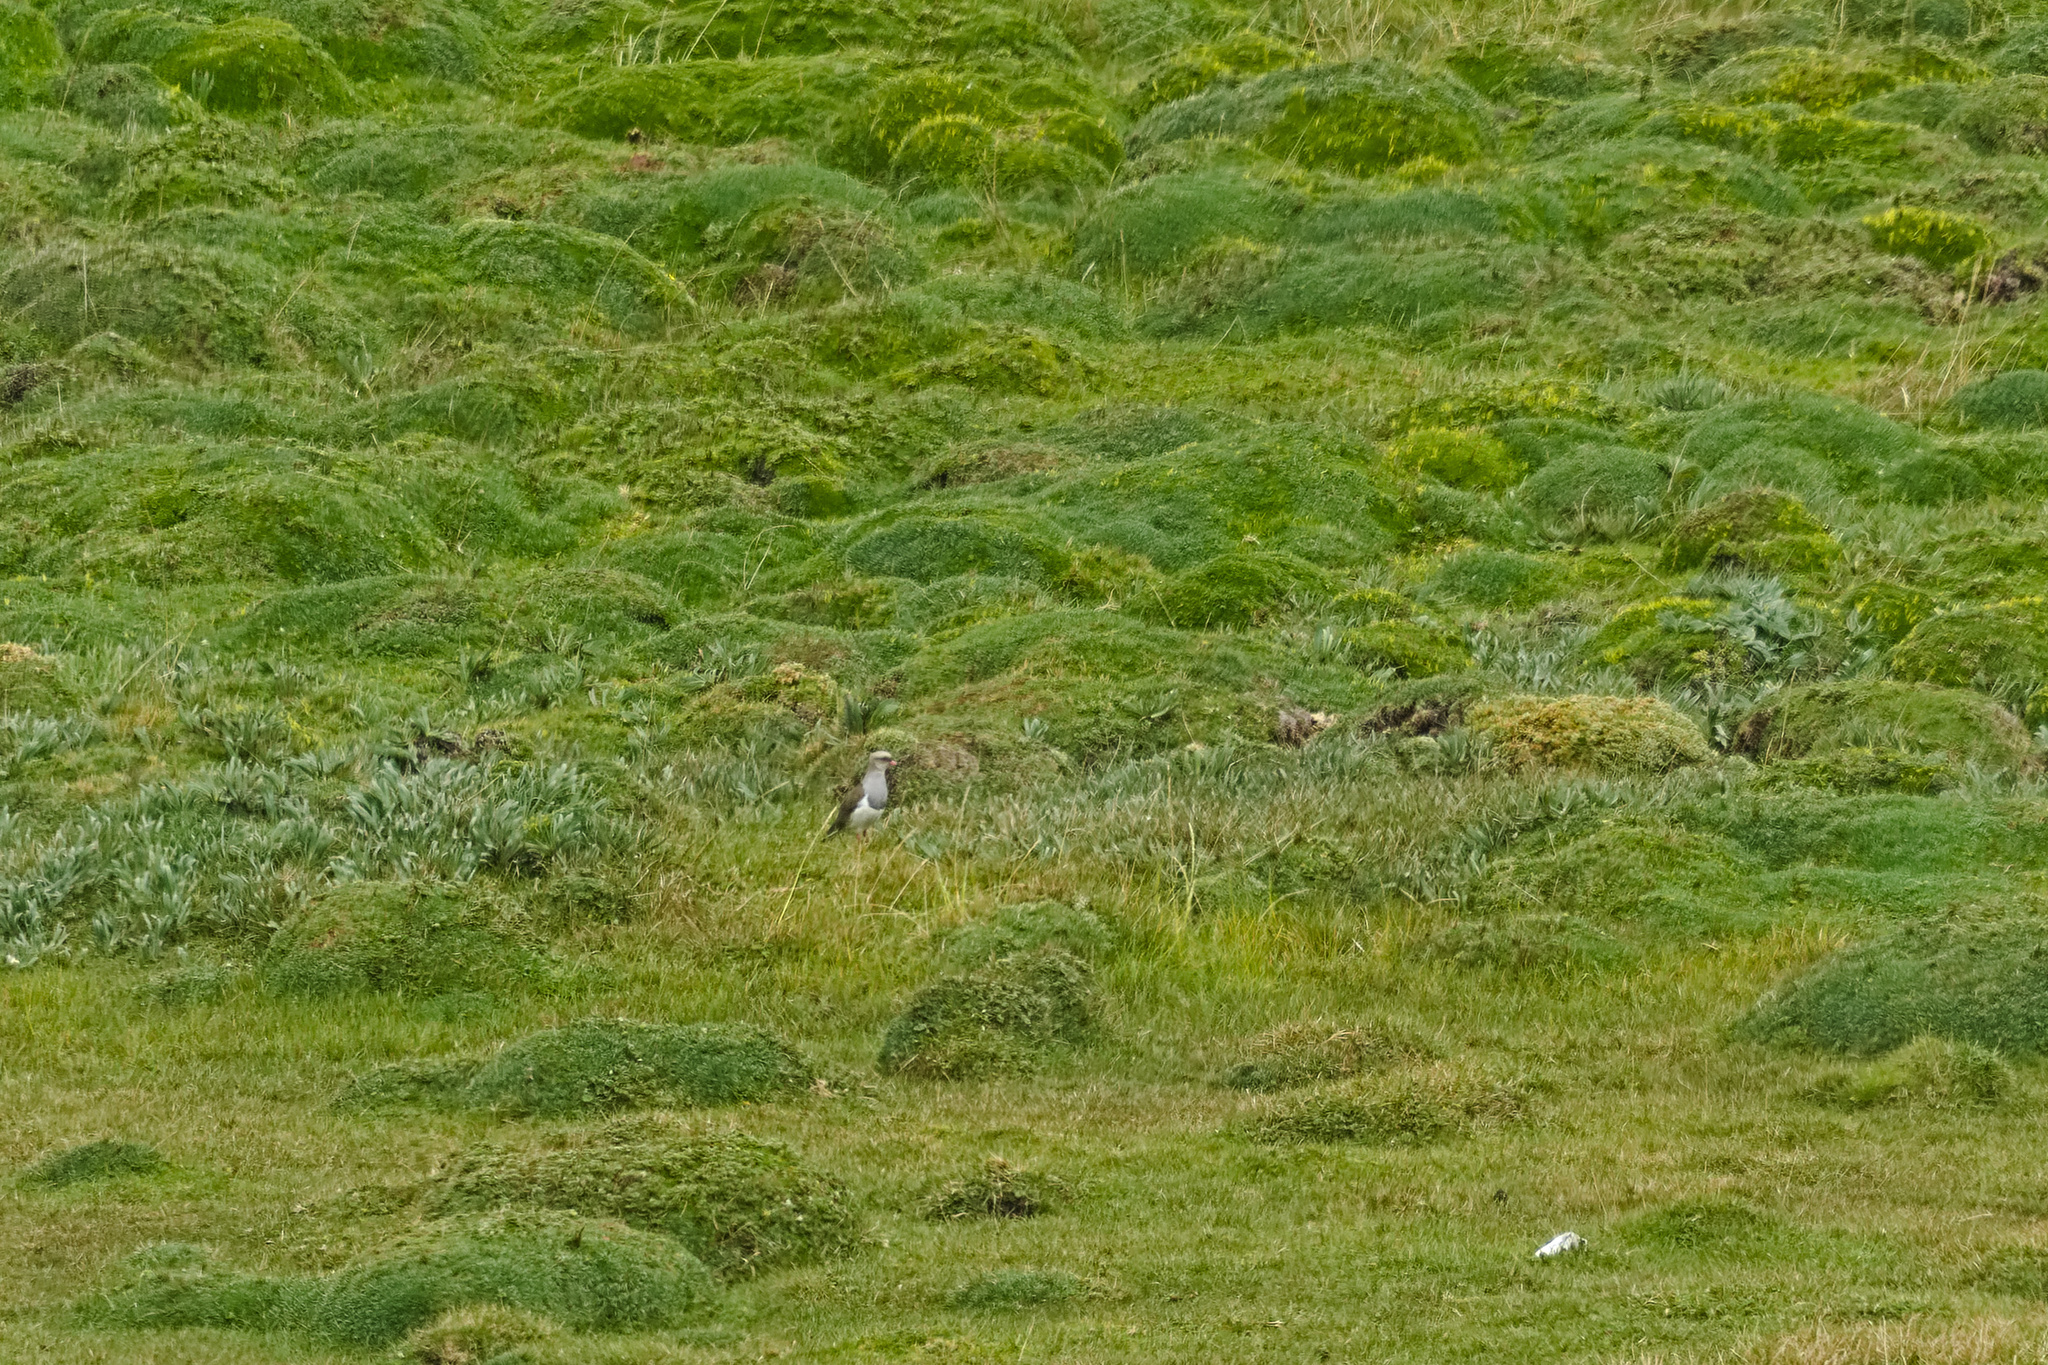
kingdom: Animalia
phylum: Chordata
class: Aves
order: Charadriiformes
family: Charadriidae
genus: Vanellus
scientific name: Vanellus resplendens
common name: Andean lapwing
